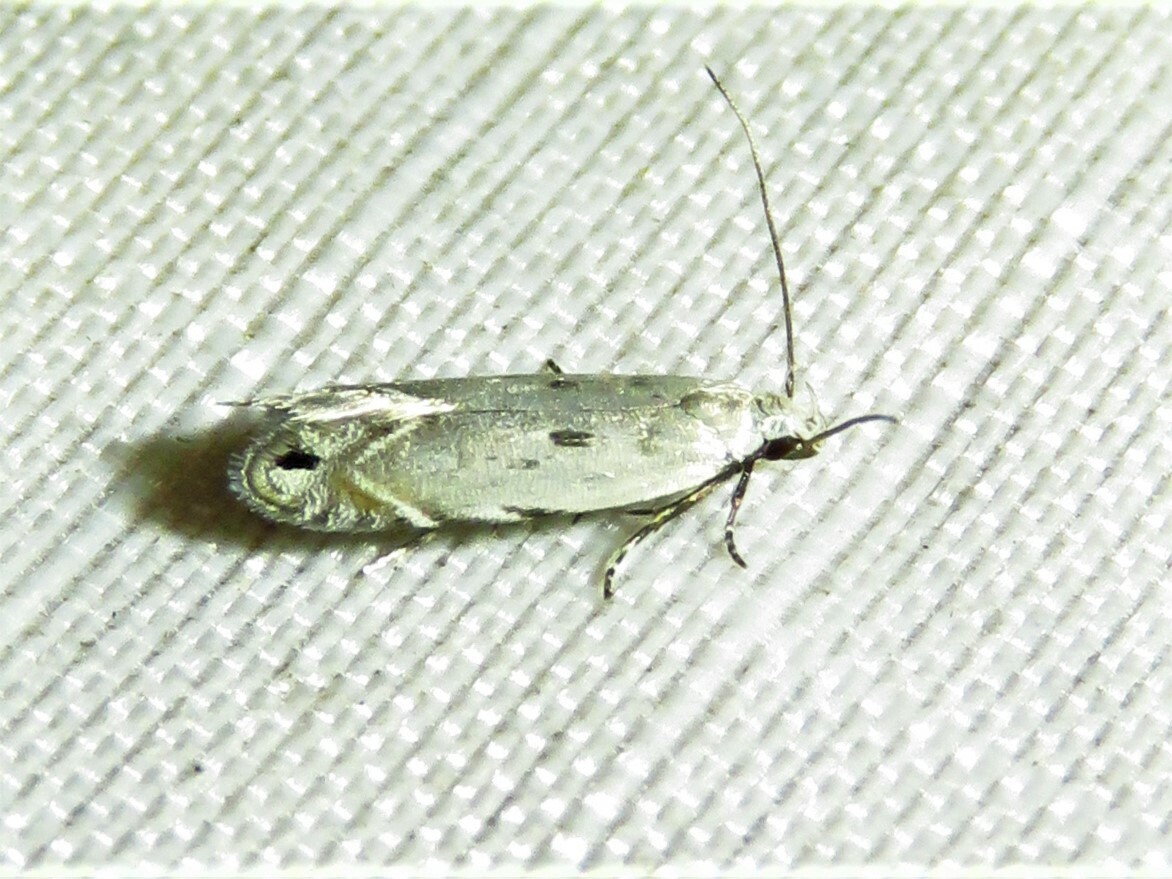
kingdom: Animalia
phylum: Arthropoda
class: Insecta
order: Lepidoptera
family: Gelechiidae
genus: Battaristis
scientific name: Battaristis concinnusella
